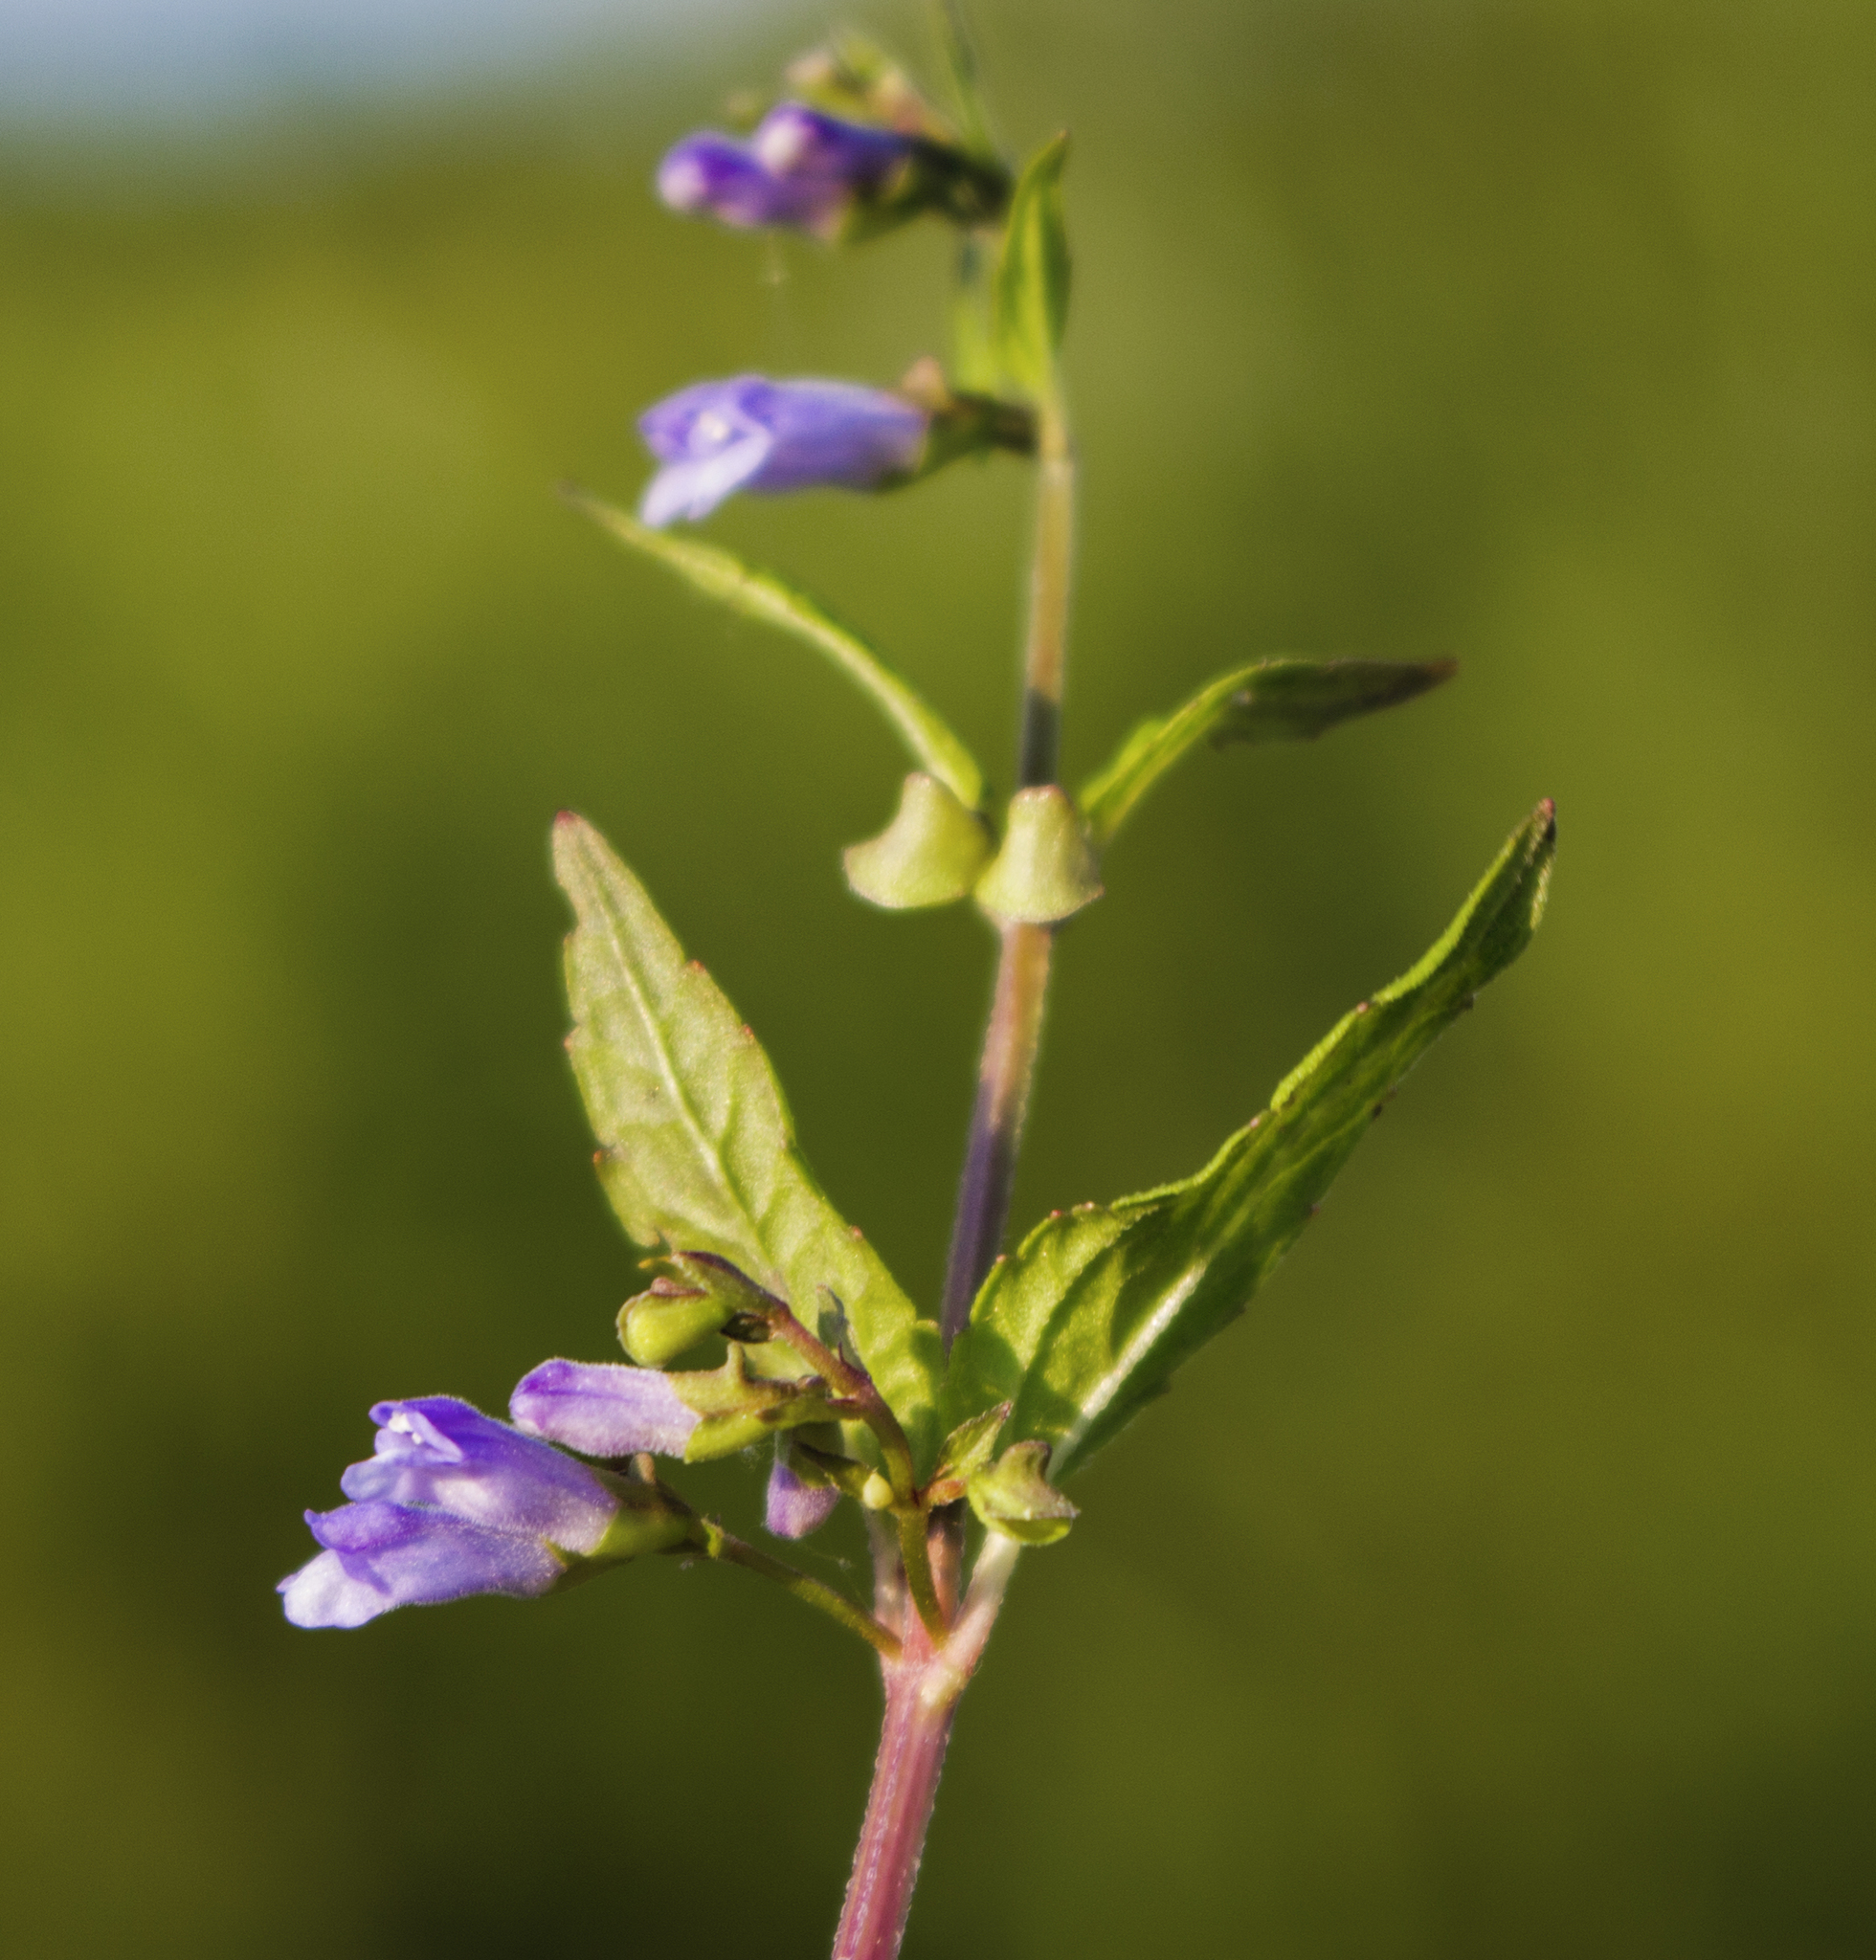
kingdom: Plantae
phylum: Tracheophyta
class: Magnoliopsida
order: Lamiales
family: Lamiaceae
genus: Scutellaria
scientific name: Scutellaria lateriflora
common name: Blue skullcap
